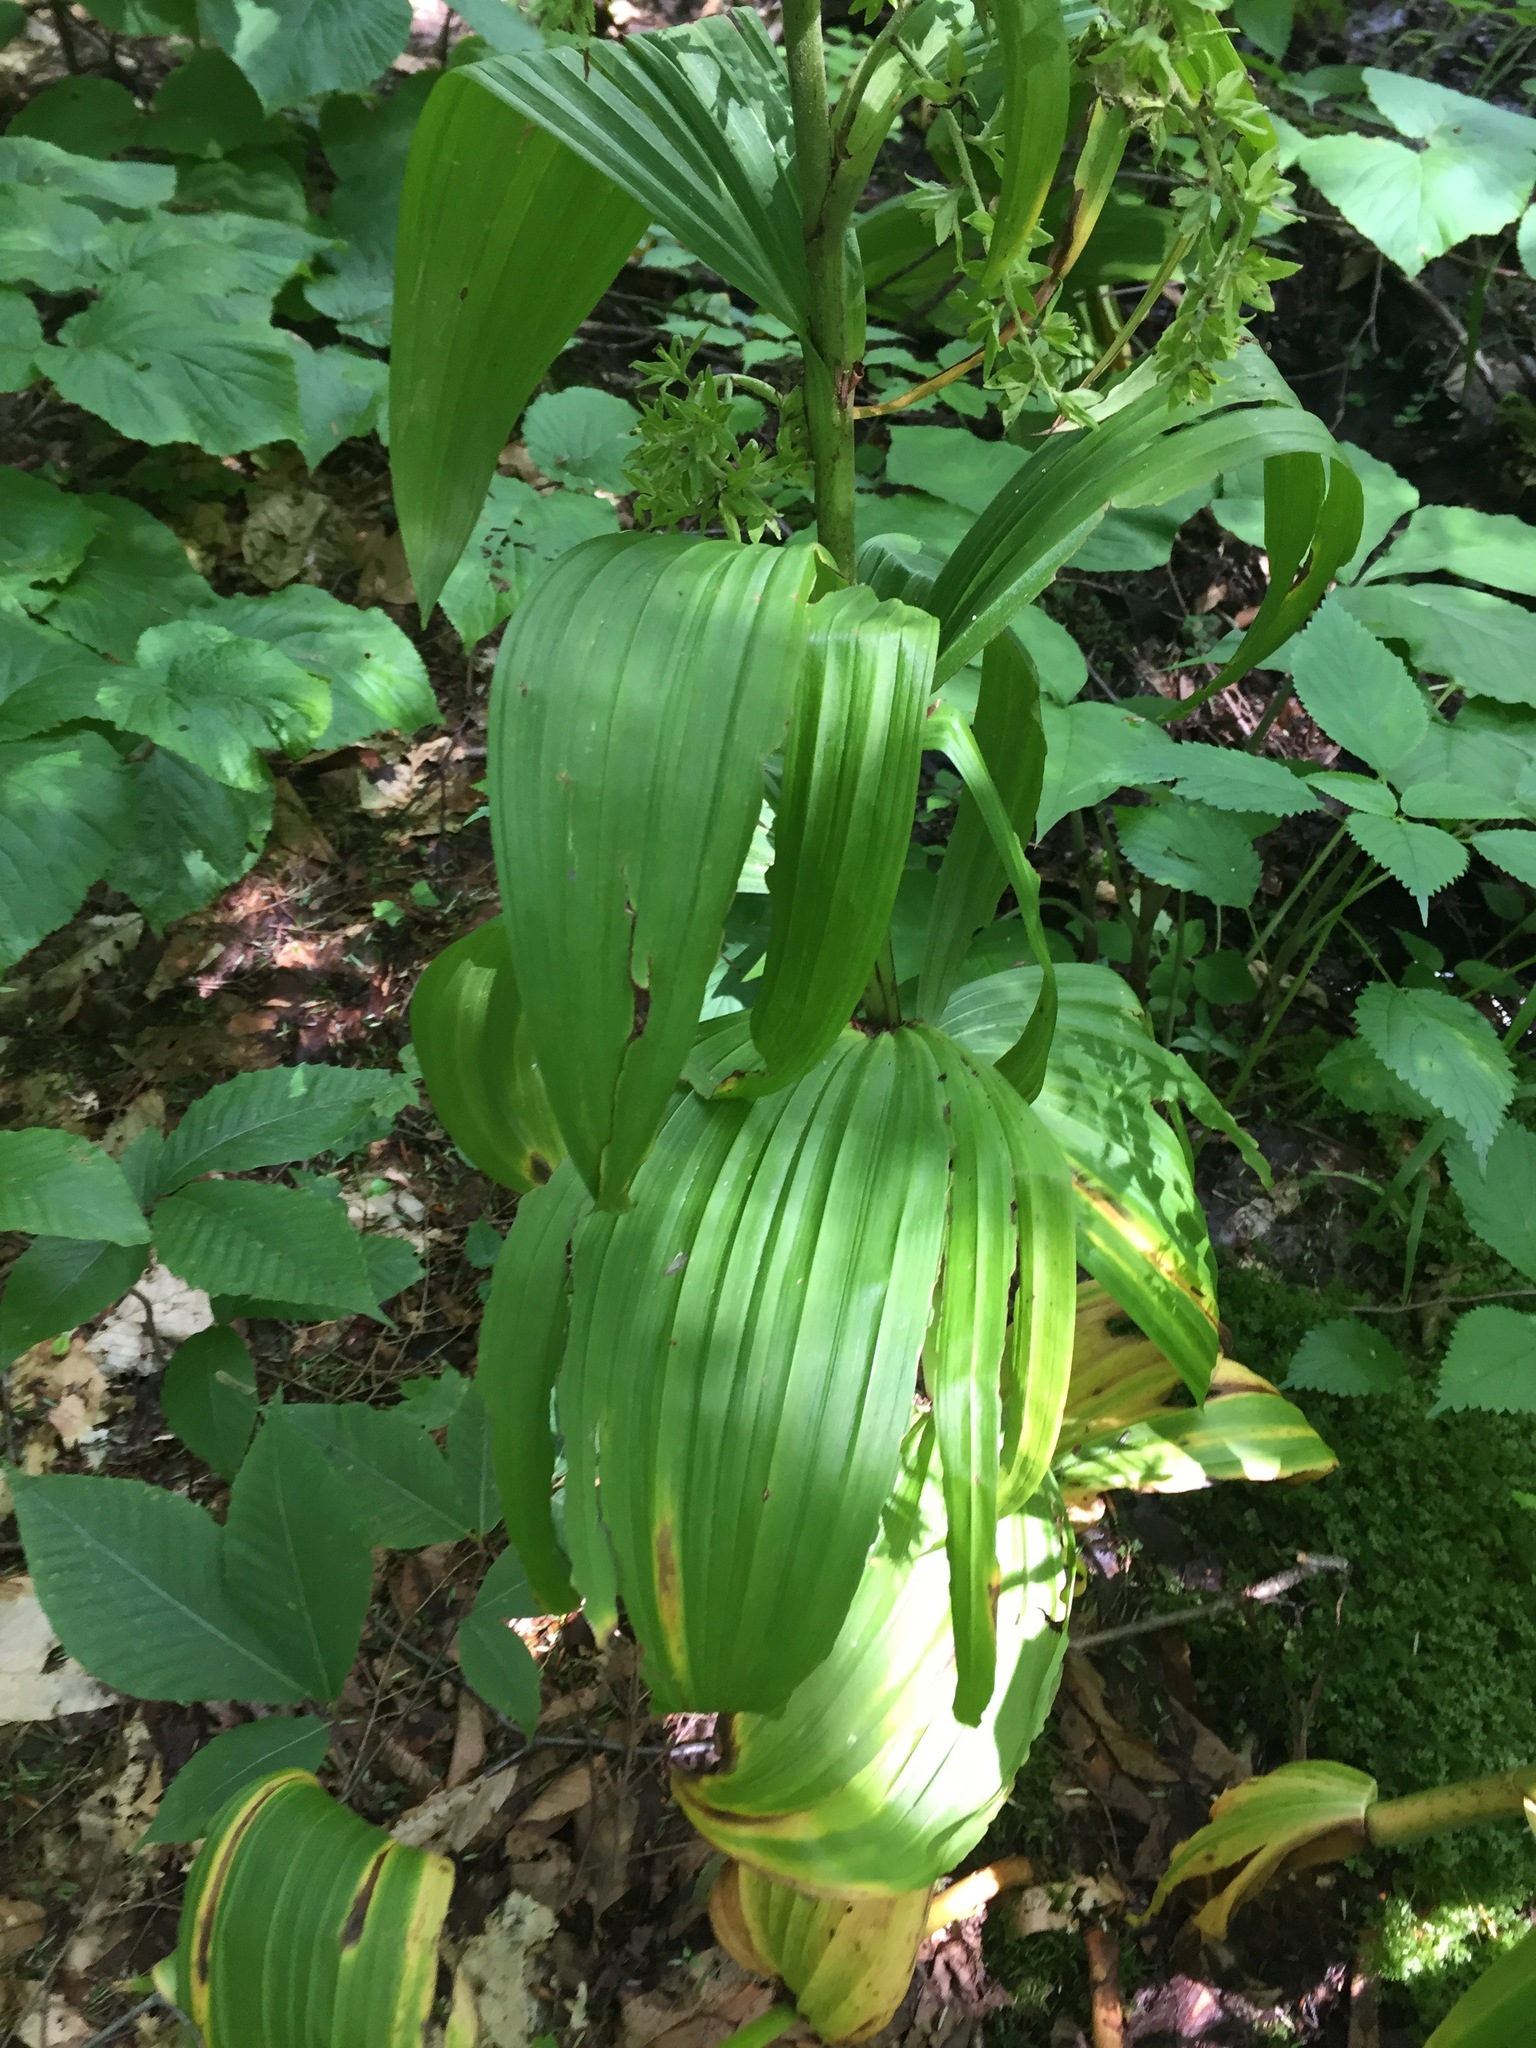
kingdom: Plantae
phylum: Tracheophyta
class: Liliopsida
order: Liliales
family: Melanthiaceae
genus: Veratrum
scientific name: Veratrum viride
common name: American false hellebore
